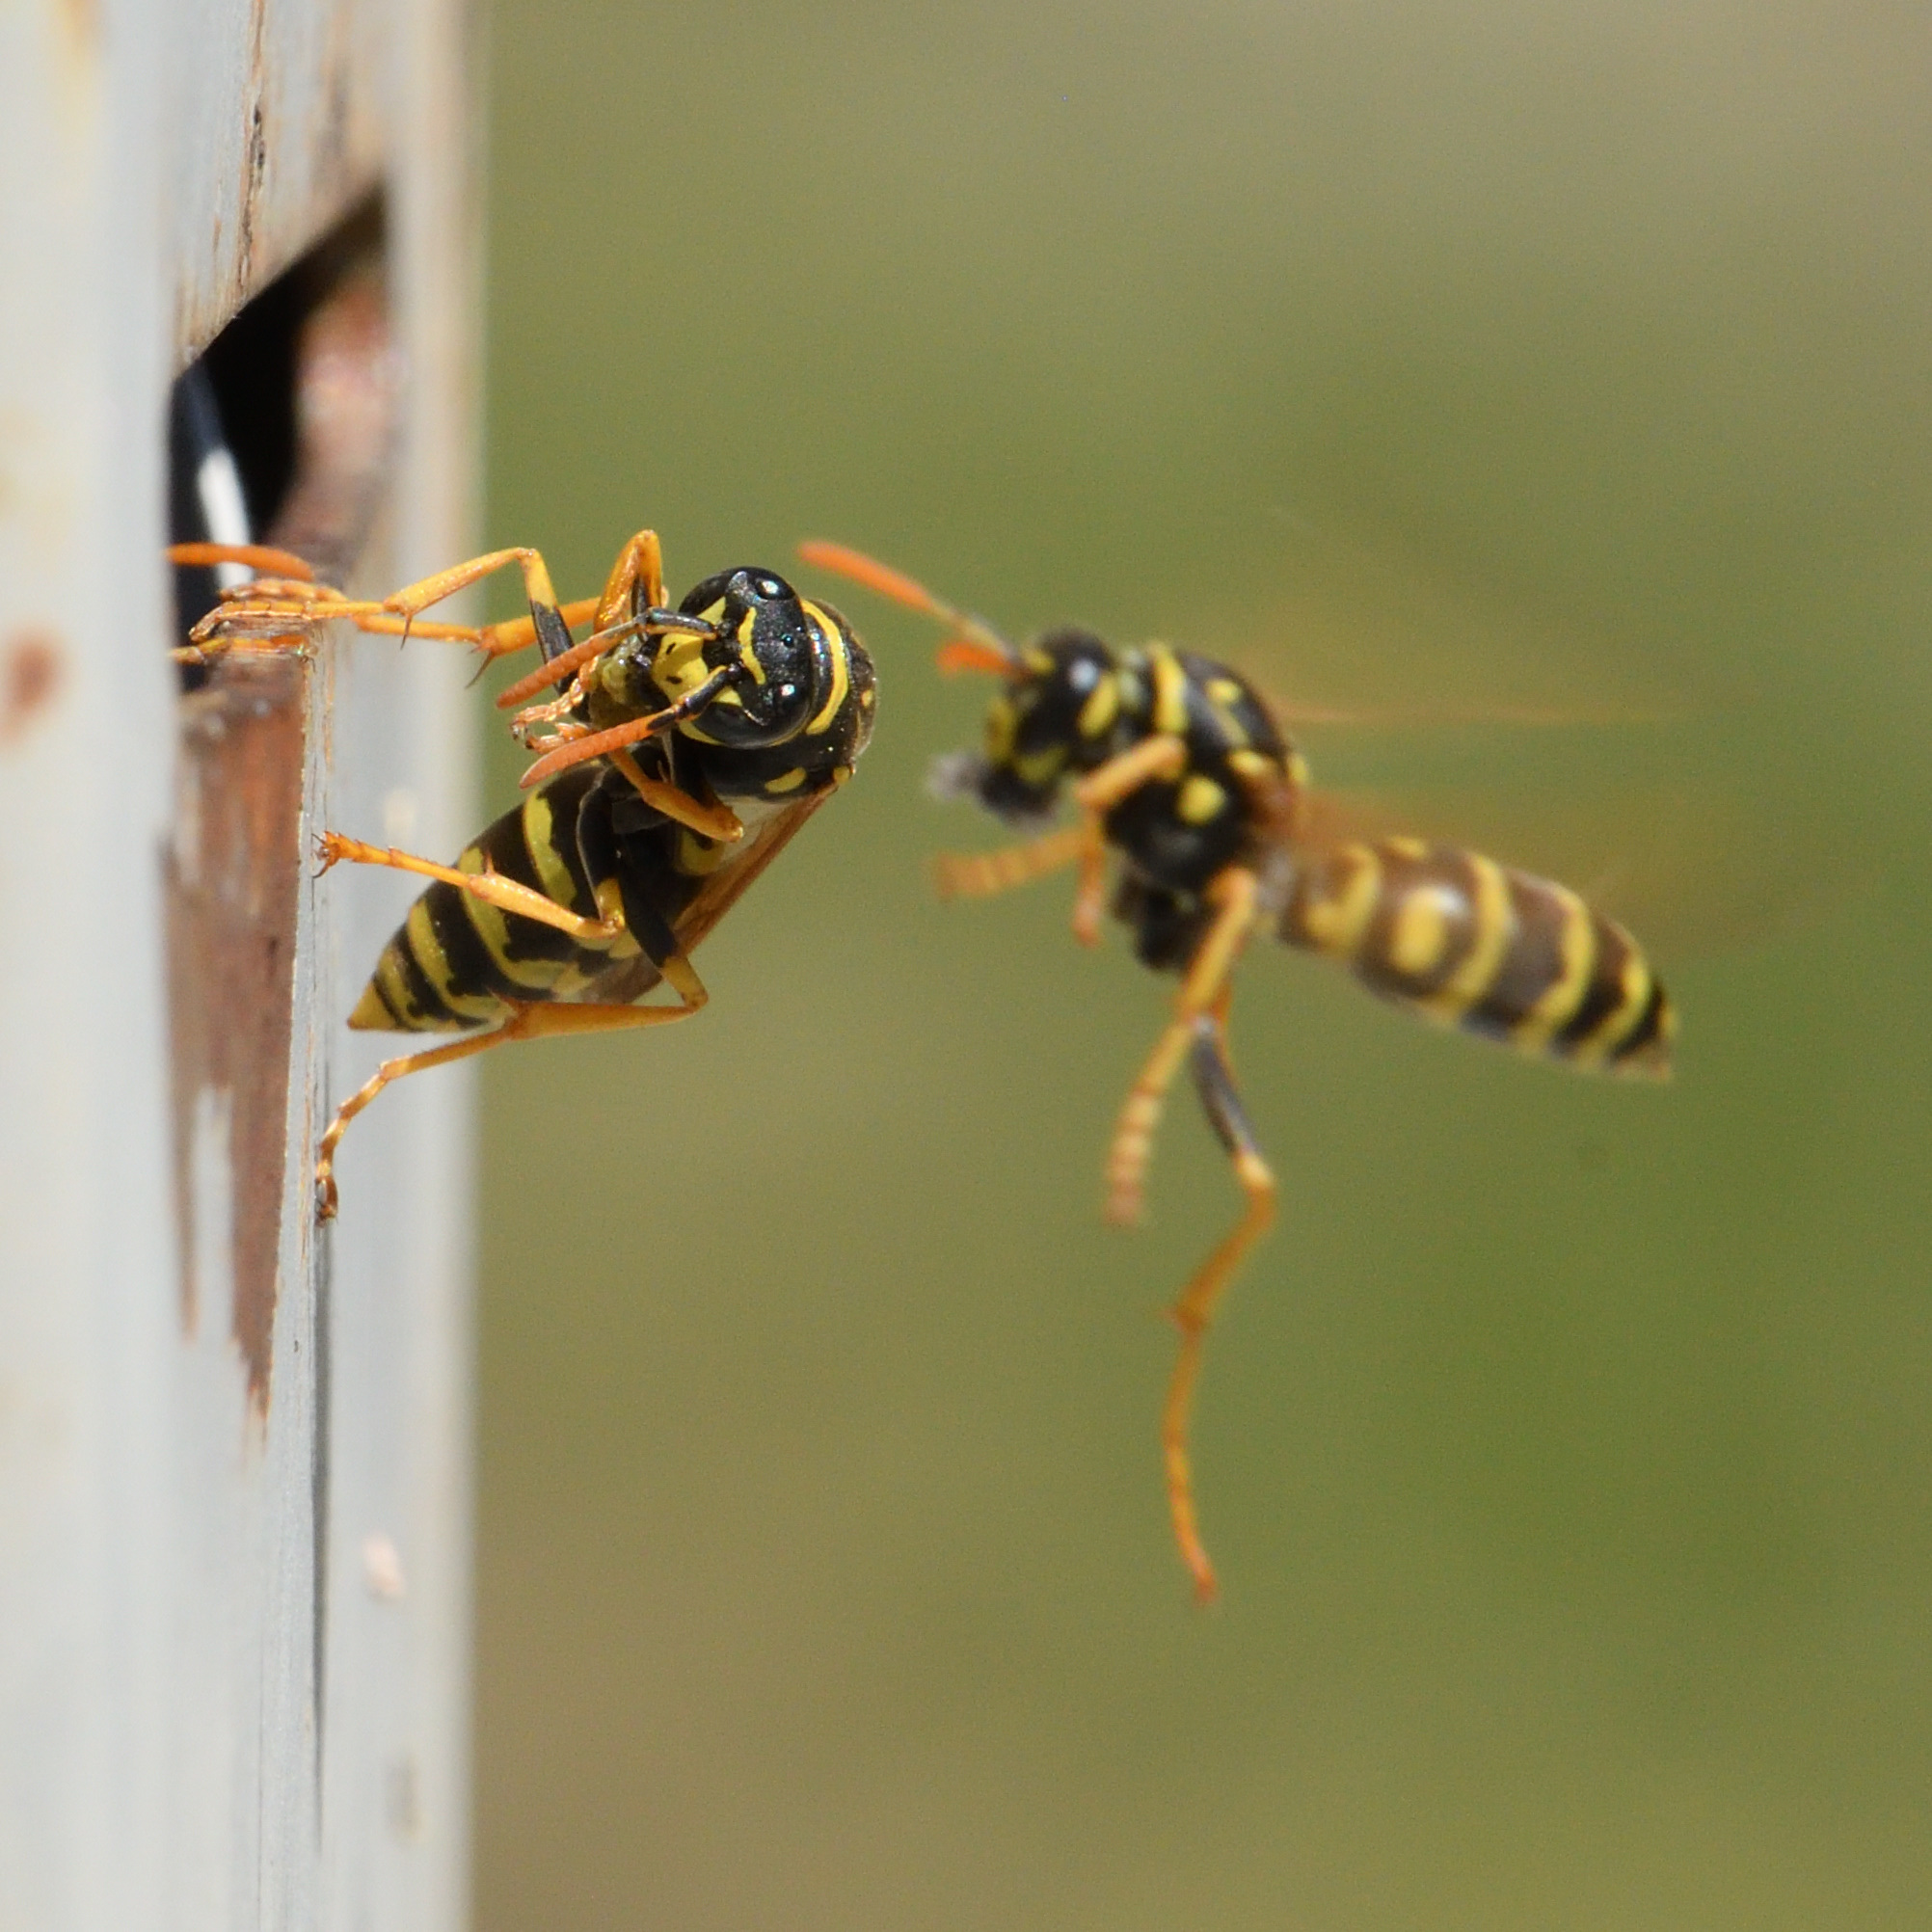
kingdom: Animalia
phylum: Arthropoda
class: Insecta
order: Hymenoptera
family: Eumenidae
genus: Polistes
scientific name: Polistes dominula
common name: Paper wasp
